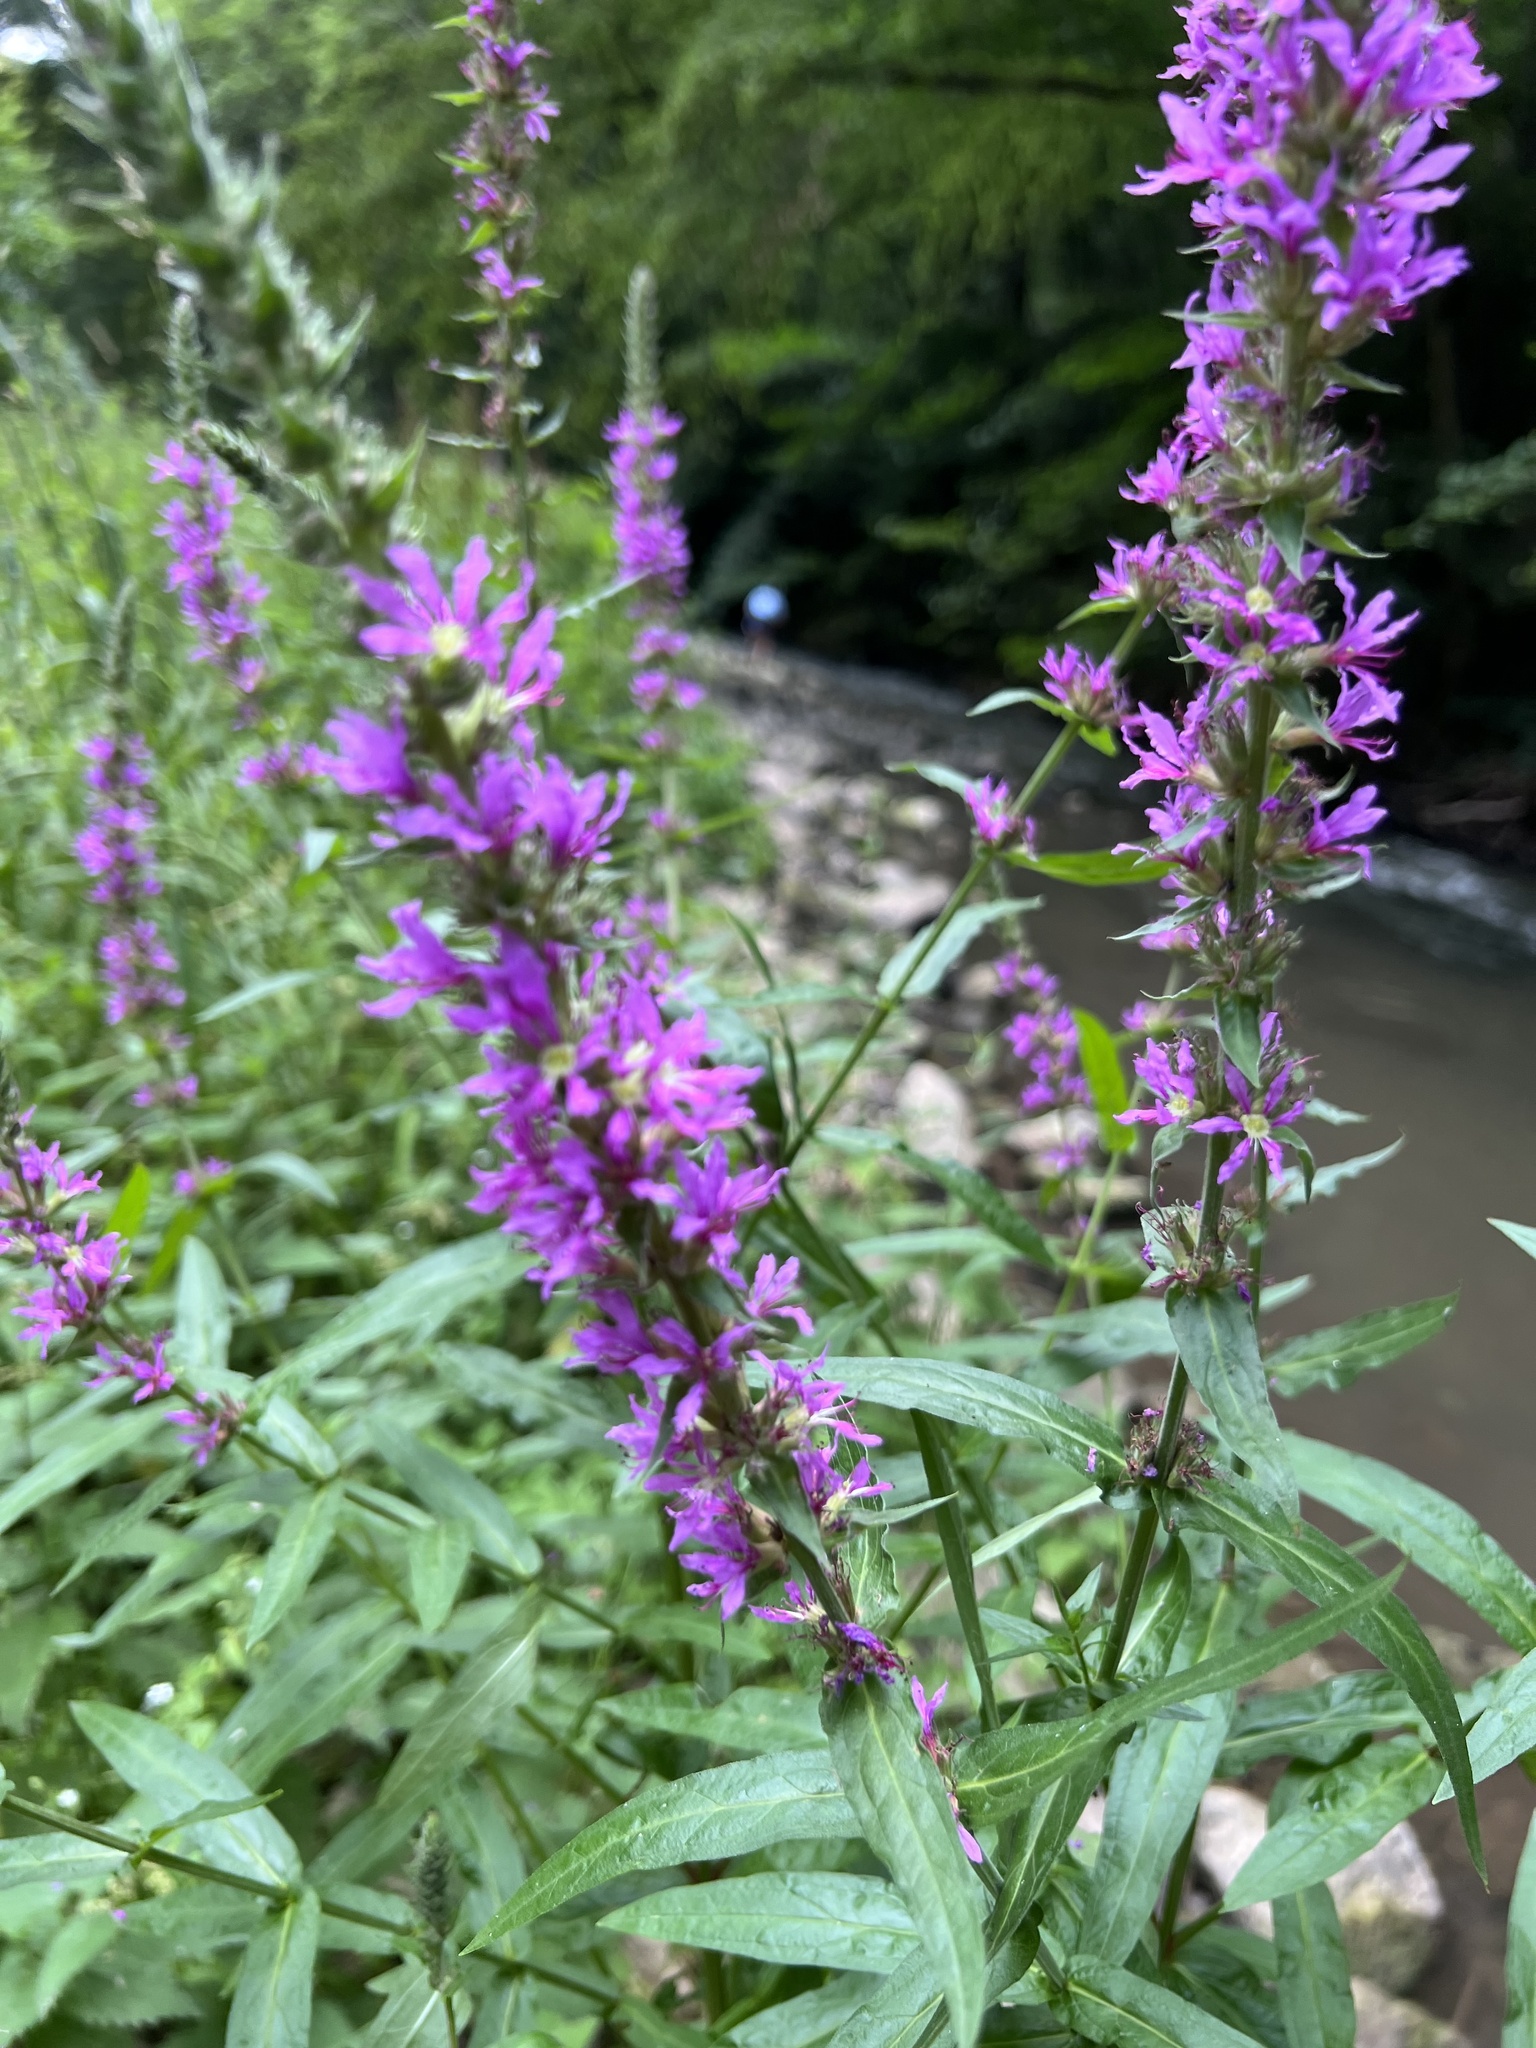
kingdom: Plantae
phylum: Tracheophyta
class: Magnoliopsida
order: Myrtales
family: Lythraceae
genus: Lythrum
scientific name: Lythrum salicaria
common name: Purple loosestrife
